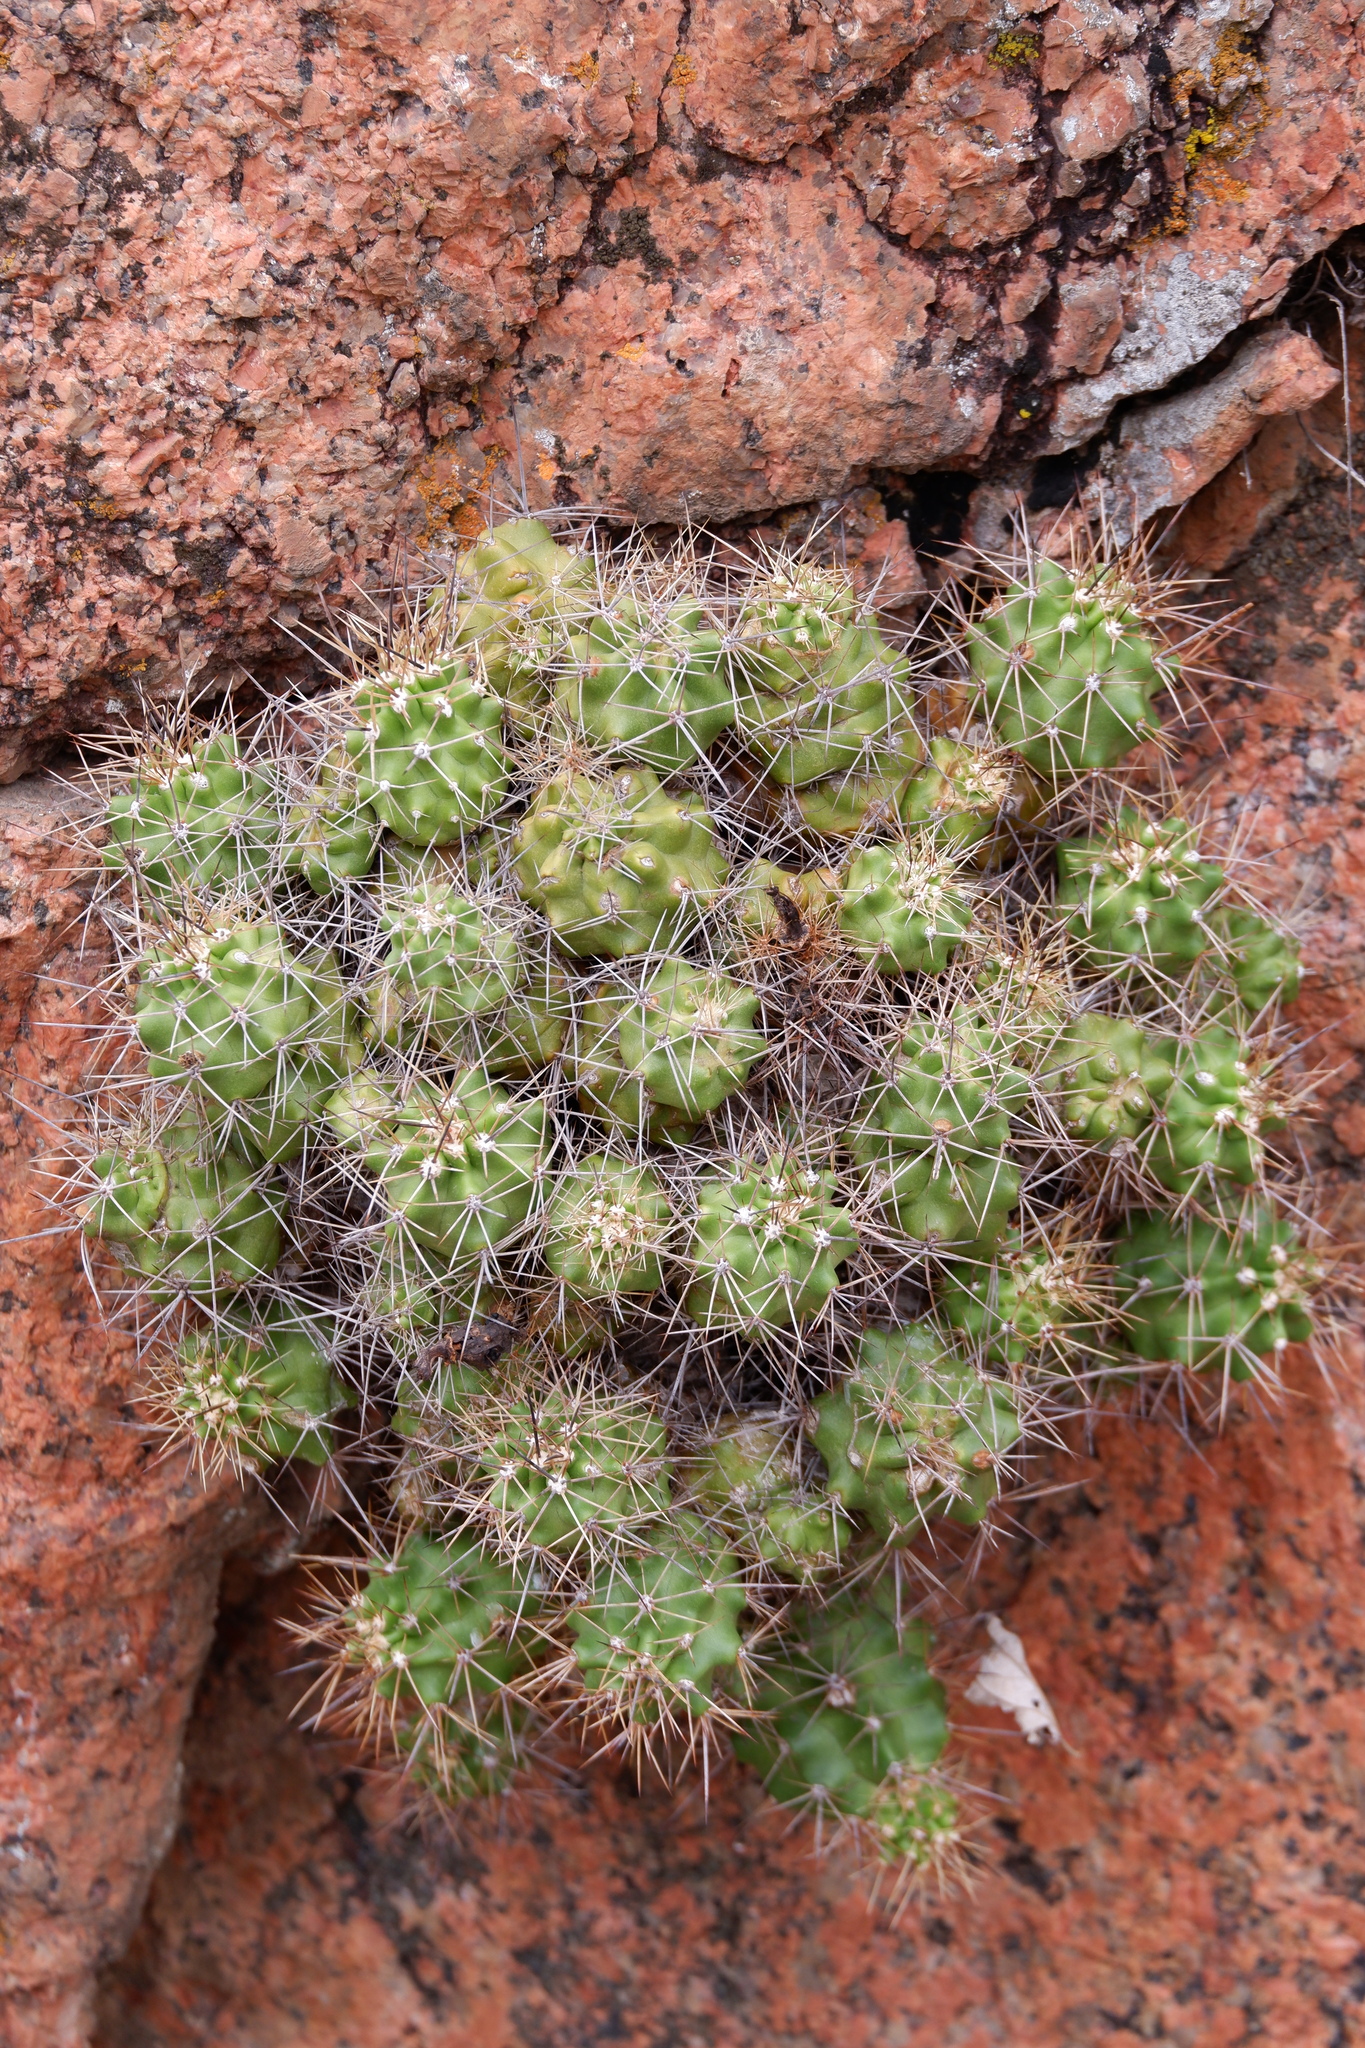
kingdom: Plantae
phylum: Tracheophyta
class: Magnoliopsida
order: Caryophyllales
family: Cactaceae
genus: Echinocereus
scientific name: Echinocereus coccineus
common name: Scarlet hedgehog cactus
